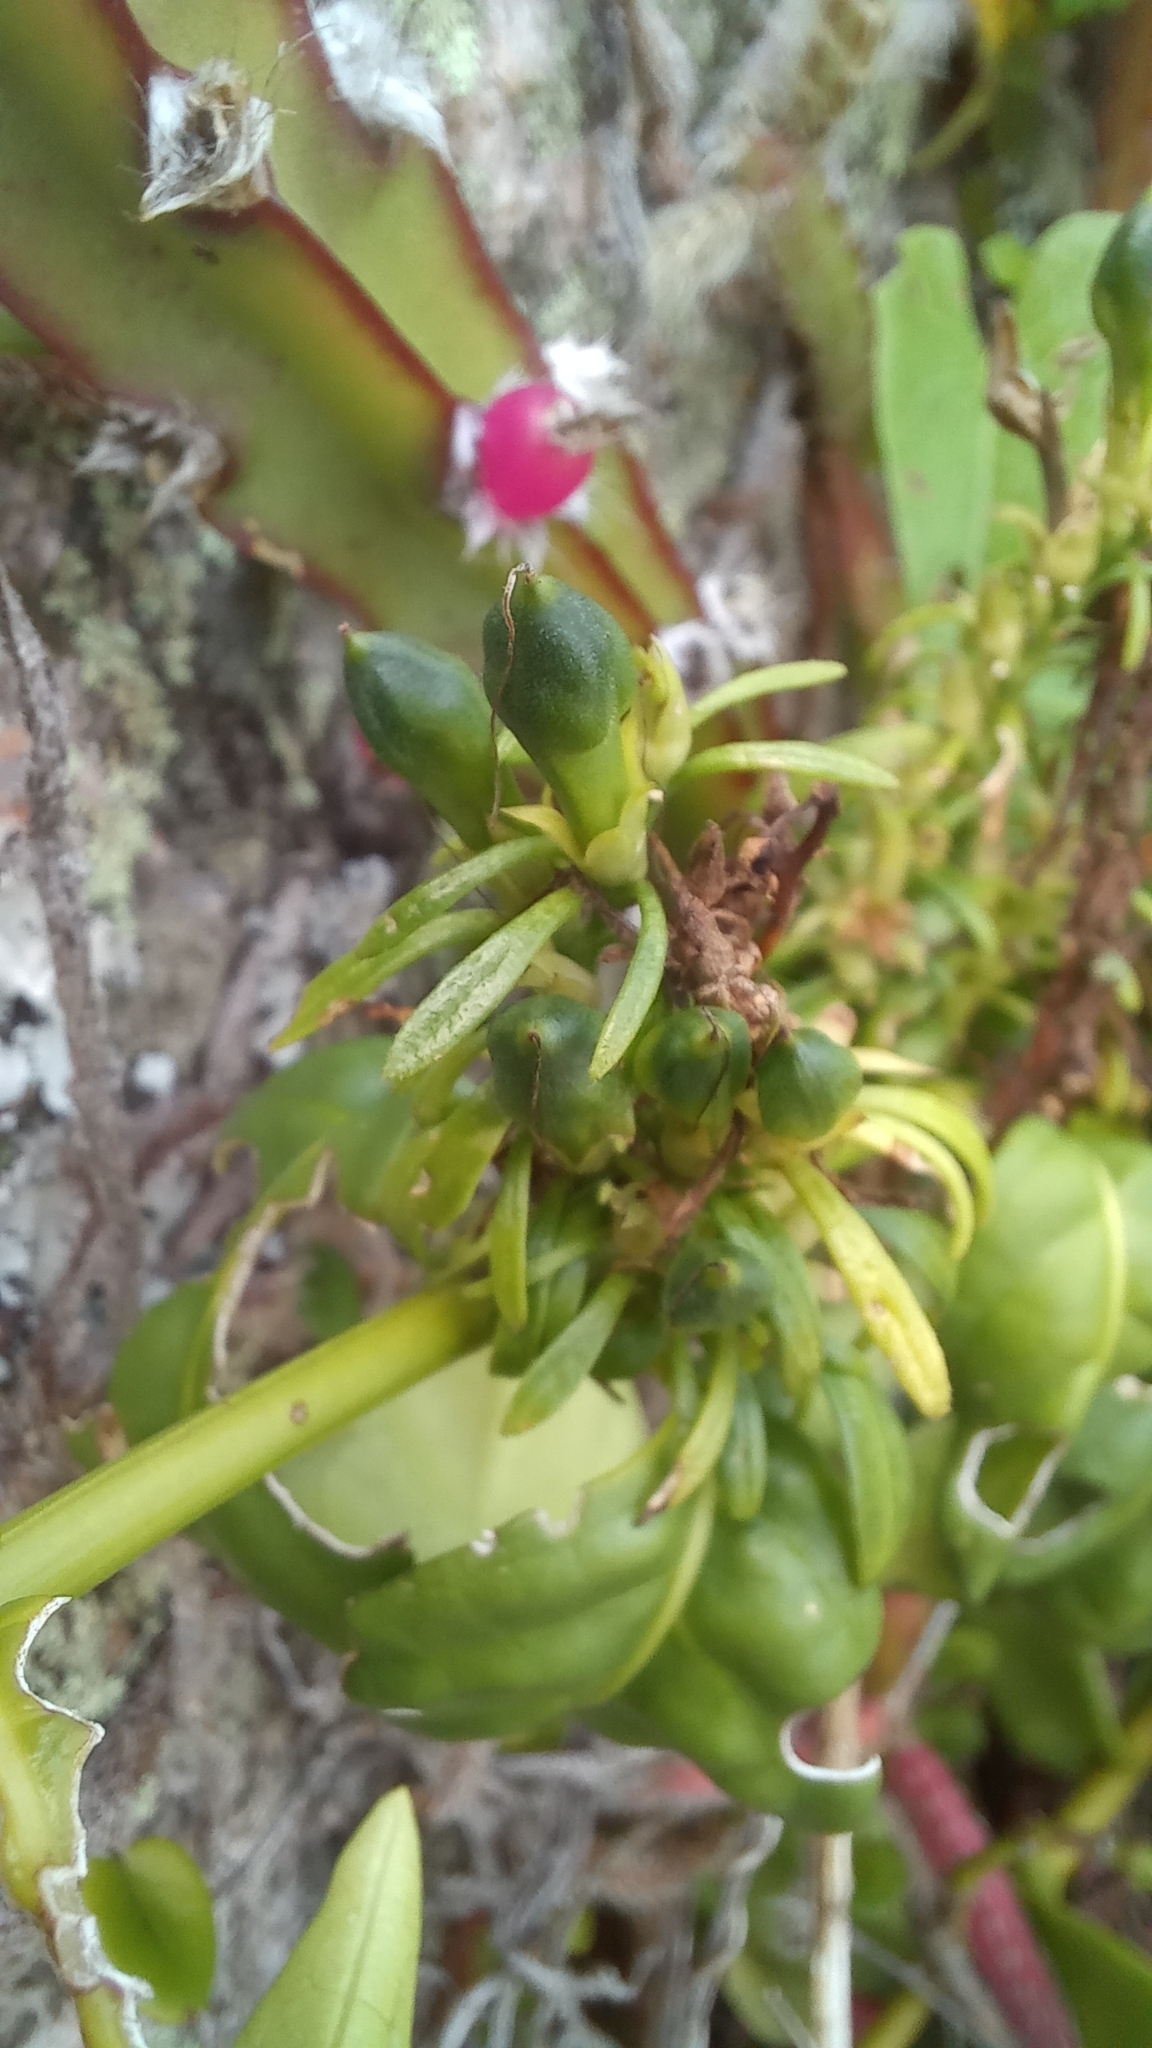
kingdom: Plantae
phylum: Tracheophyta
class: Magnoliopsida
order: Lamiales
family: Acanthaceae
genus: Justicia
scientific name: Justicia brasiliana
